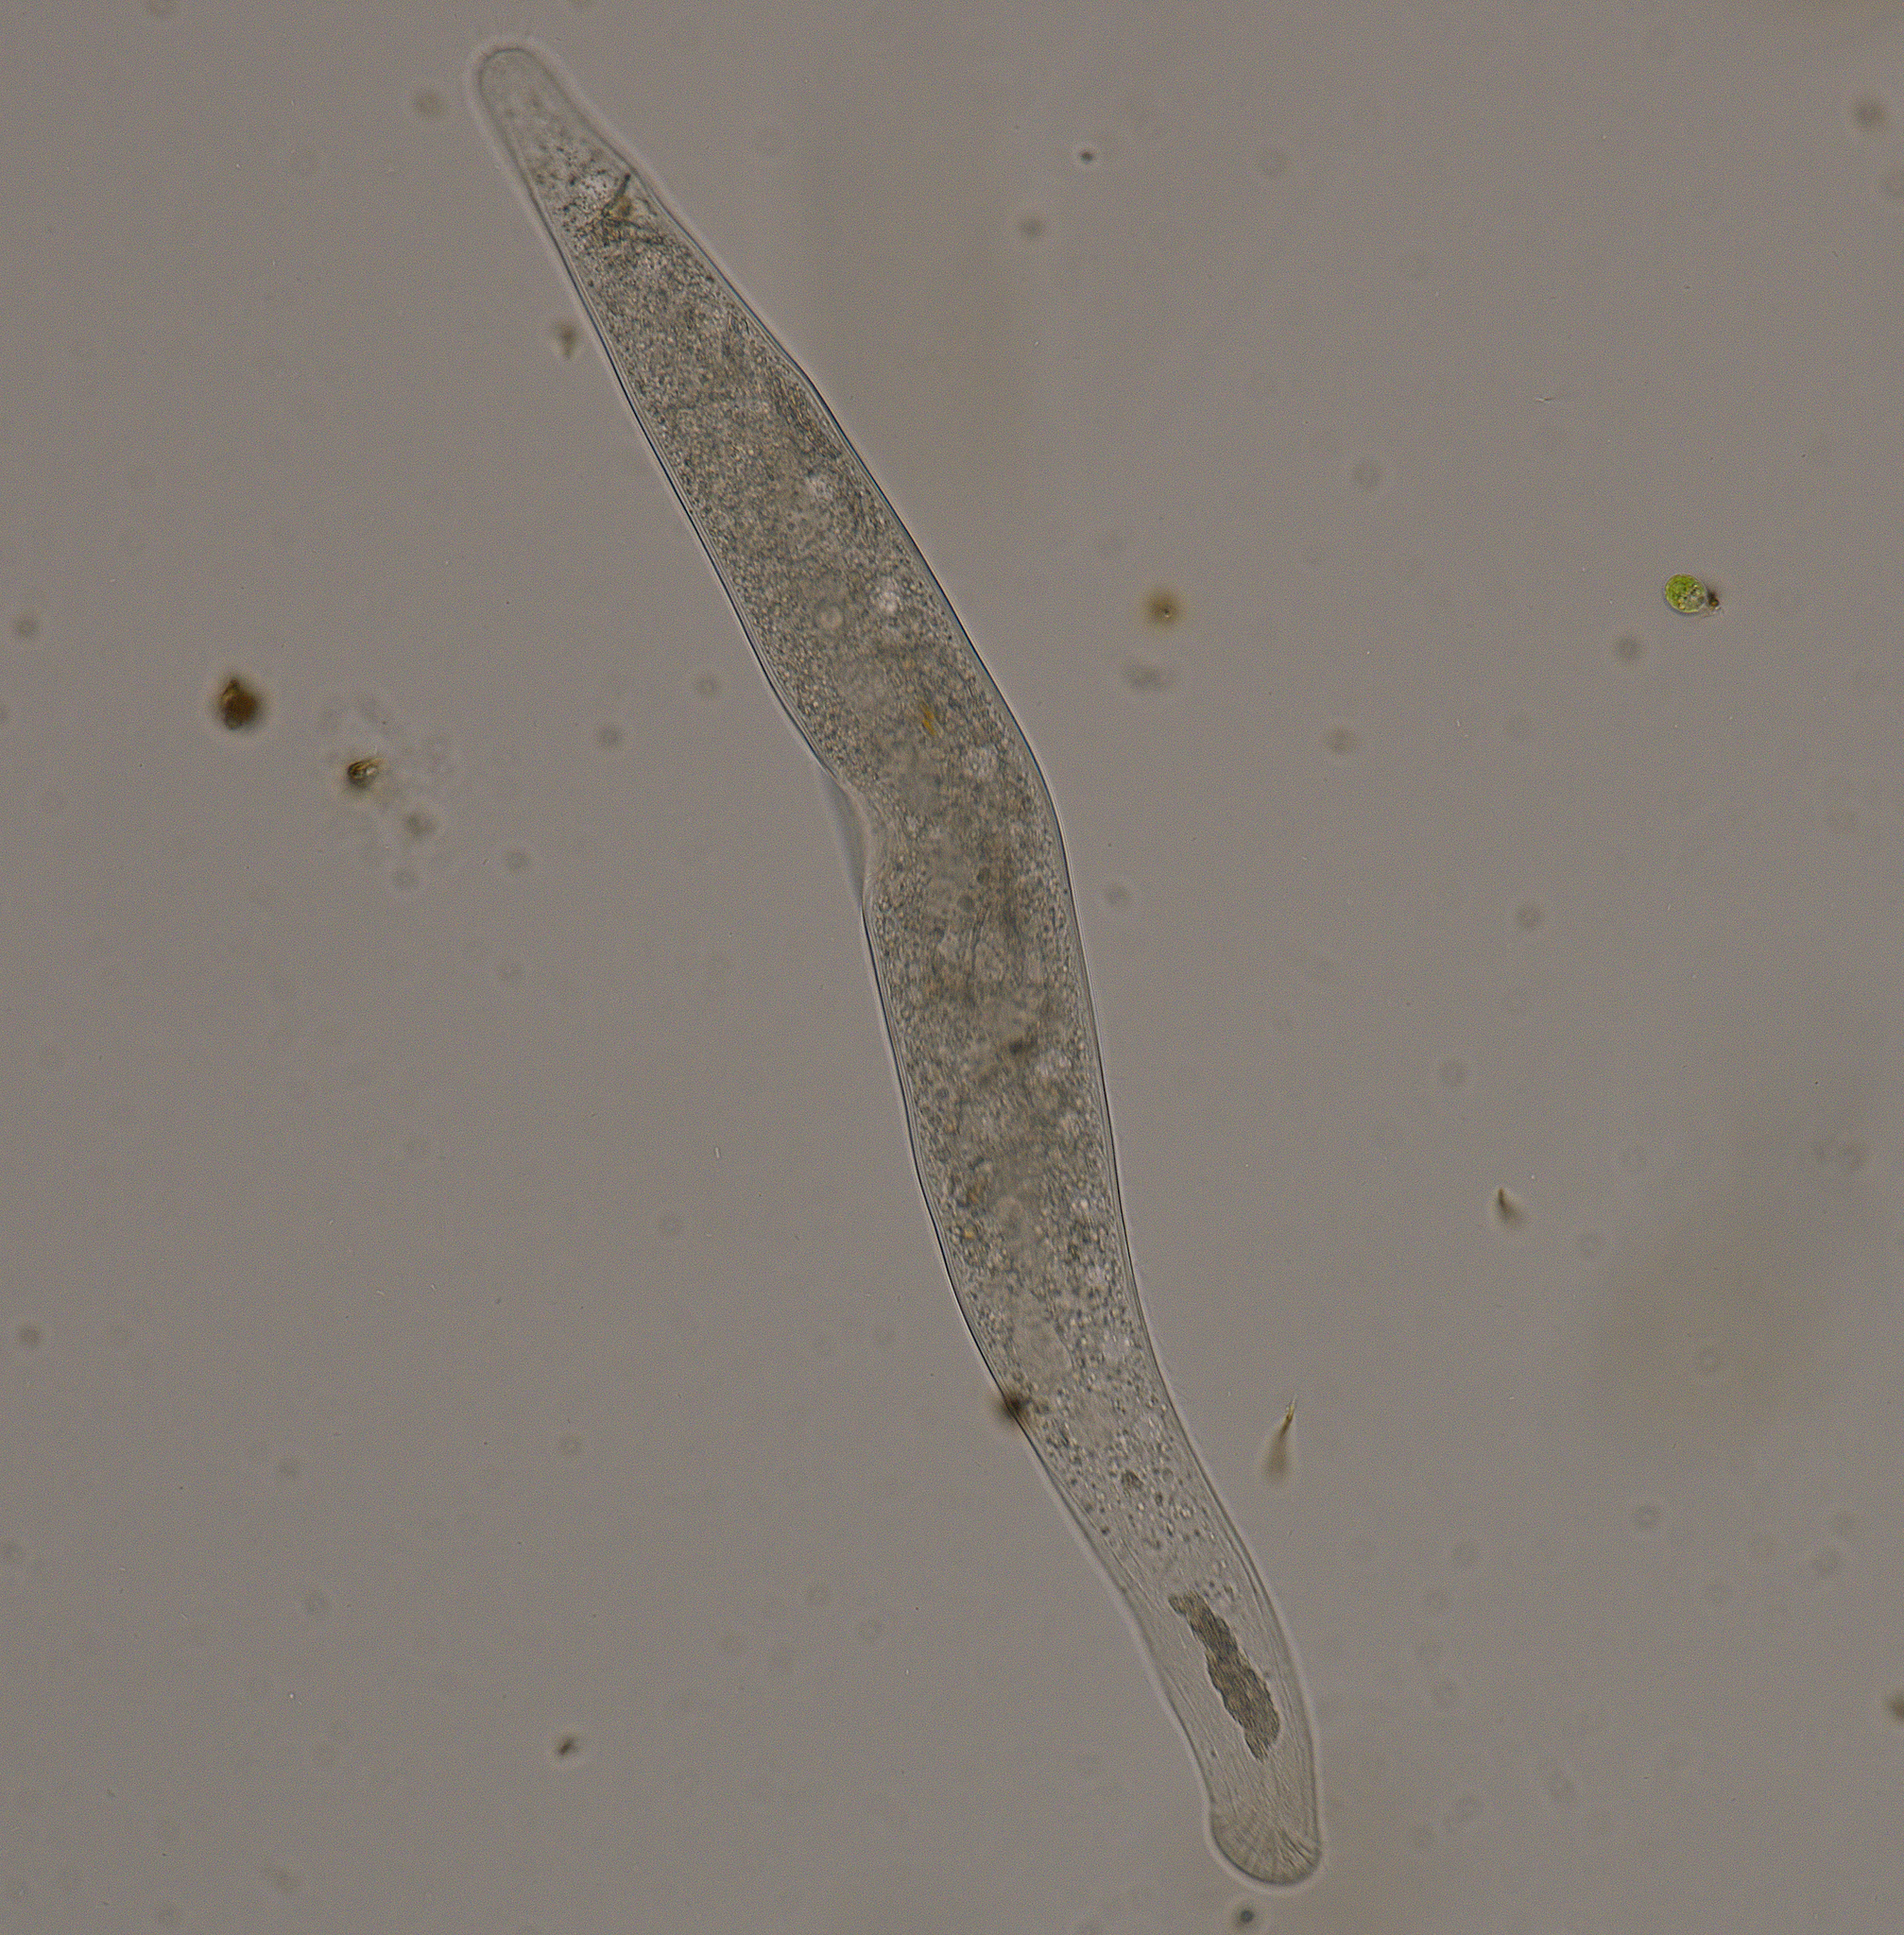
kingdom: Chromista
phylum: Ciliophora
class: Gymnostomatea
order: Spathidiida
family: Homalozoidae
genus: Homalozoon
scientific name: Homalozoon vermiculare
